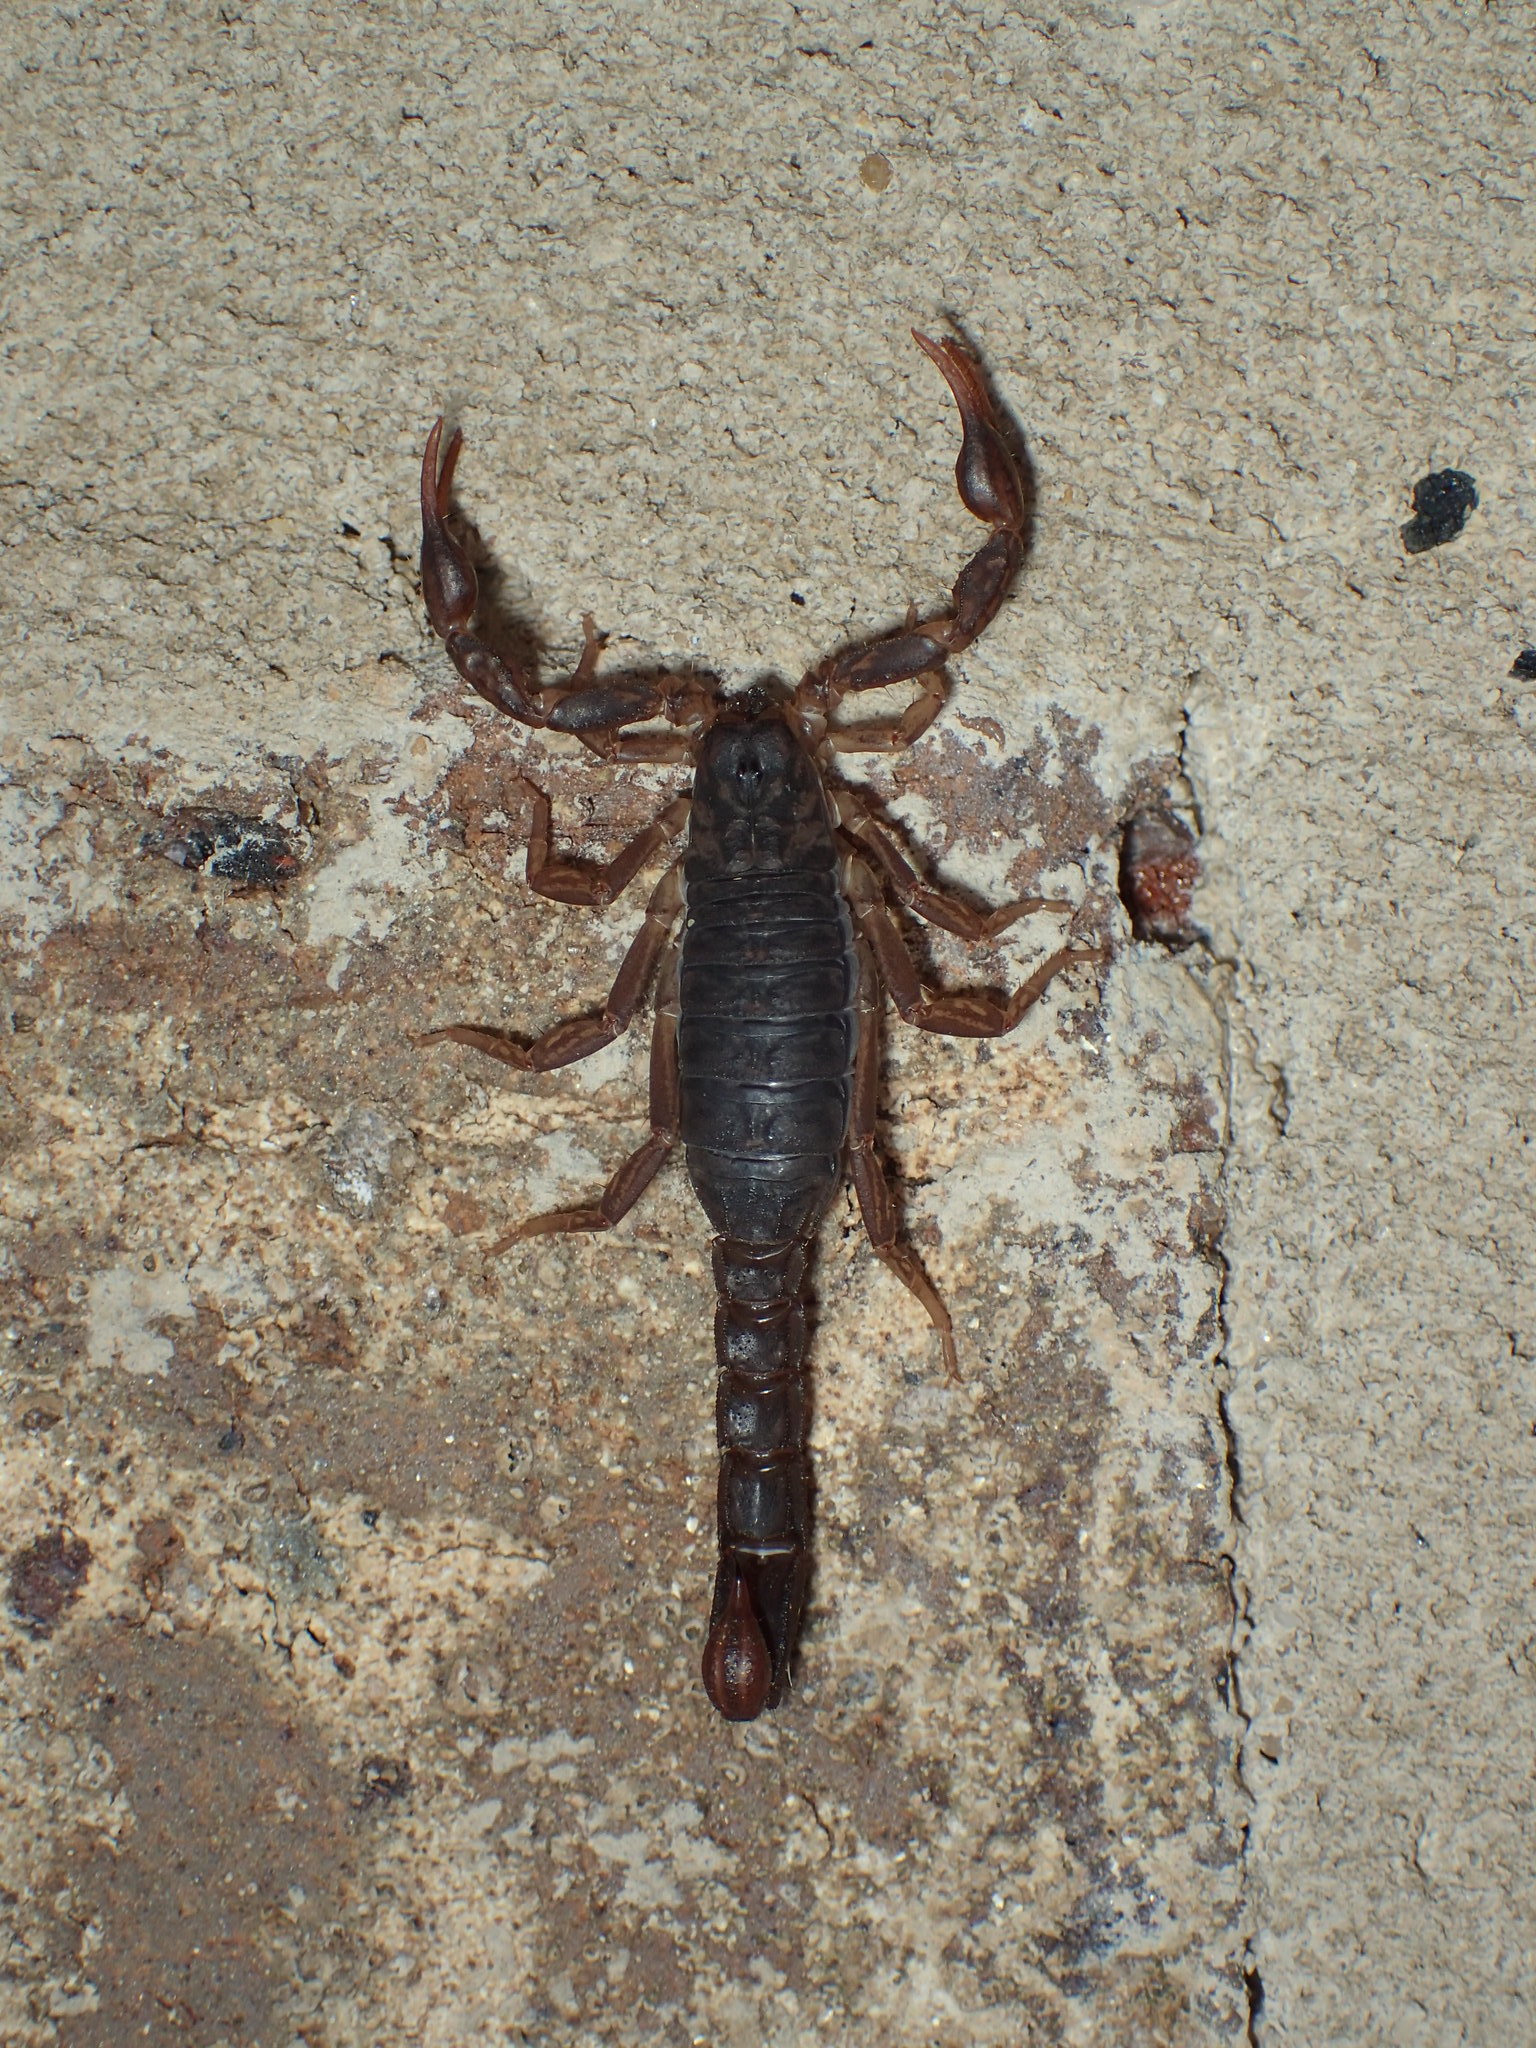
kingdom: Animalia
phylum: Arthropoda
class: Arachnida
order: Scorpiones
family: Vaejovidae
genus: Vaejovis
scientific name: Vaejovis carolinianus
